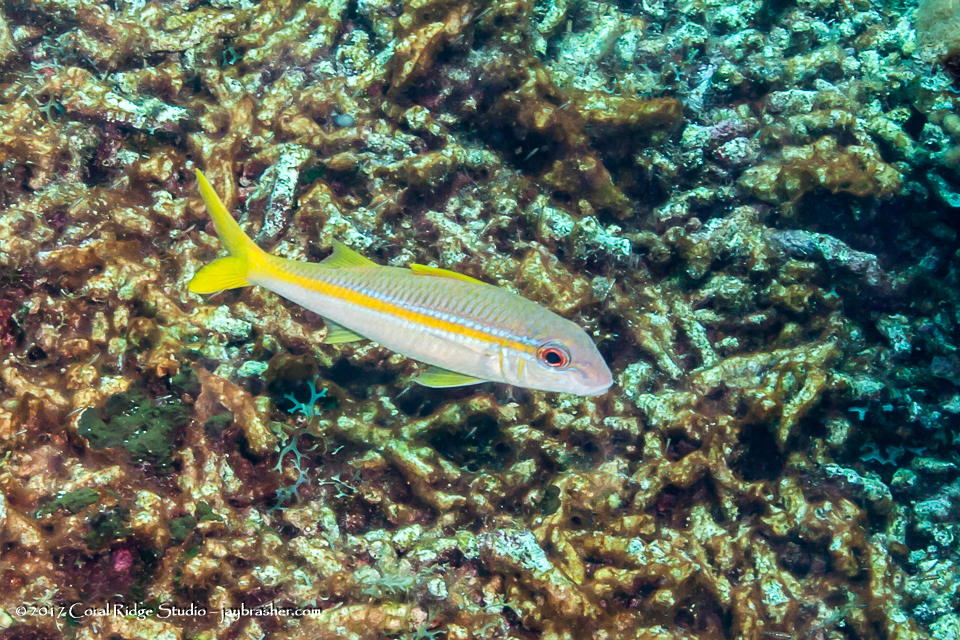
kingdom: Animalia
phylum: Chordata
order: Perciformes
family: Mullidae
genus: Mulloidichthys
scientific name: Mulloidichthys martinicus
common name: Yellow goatfish
